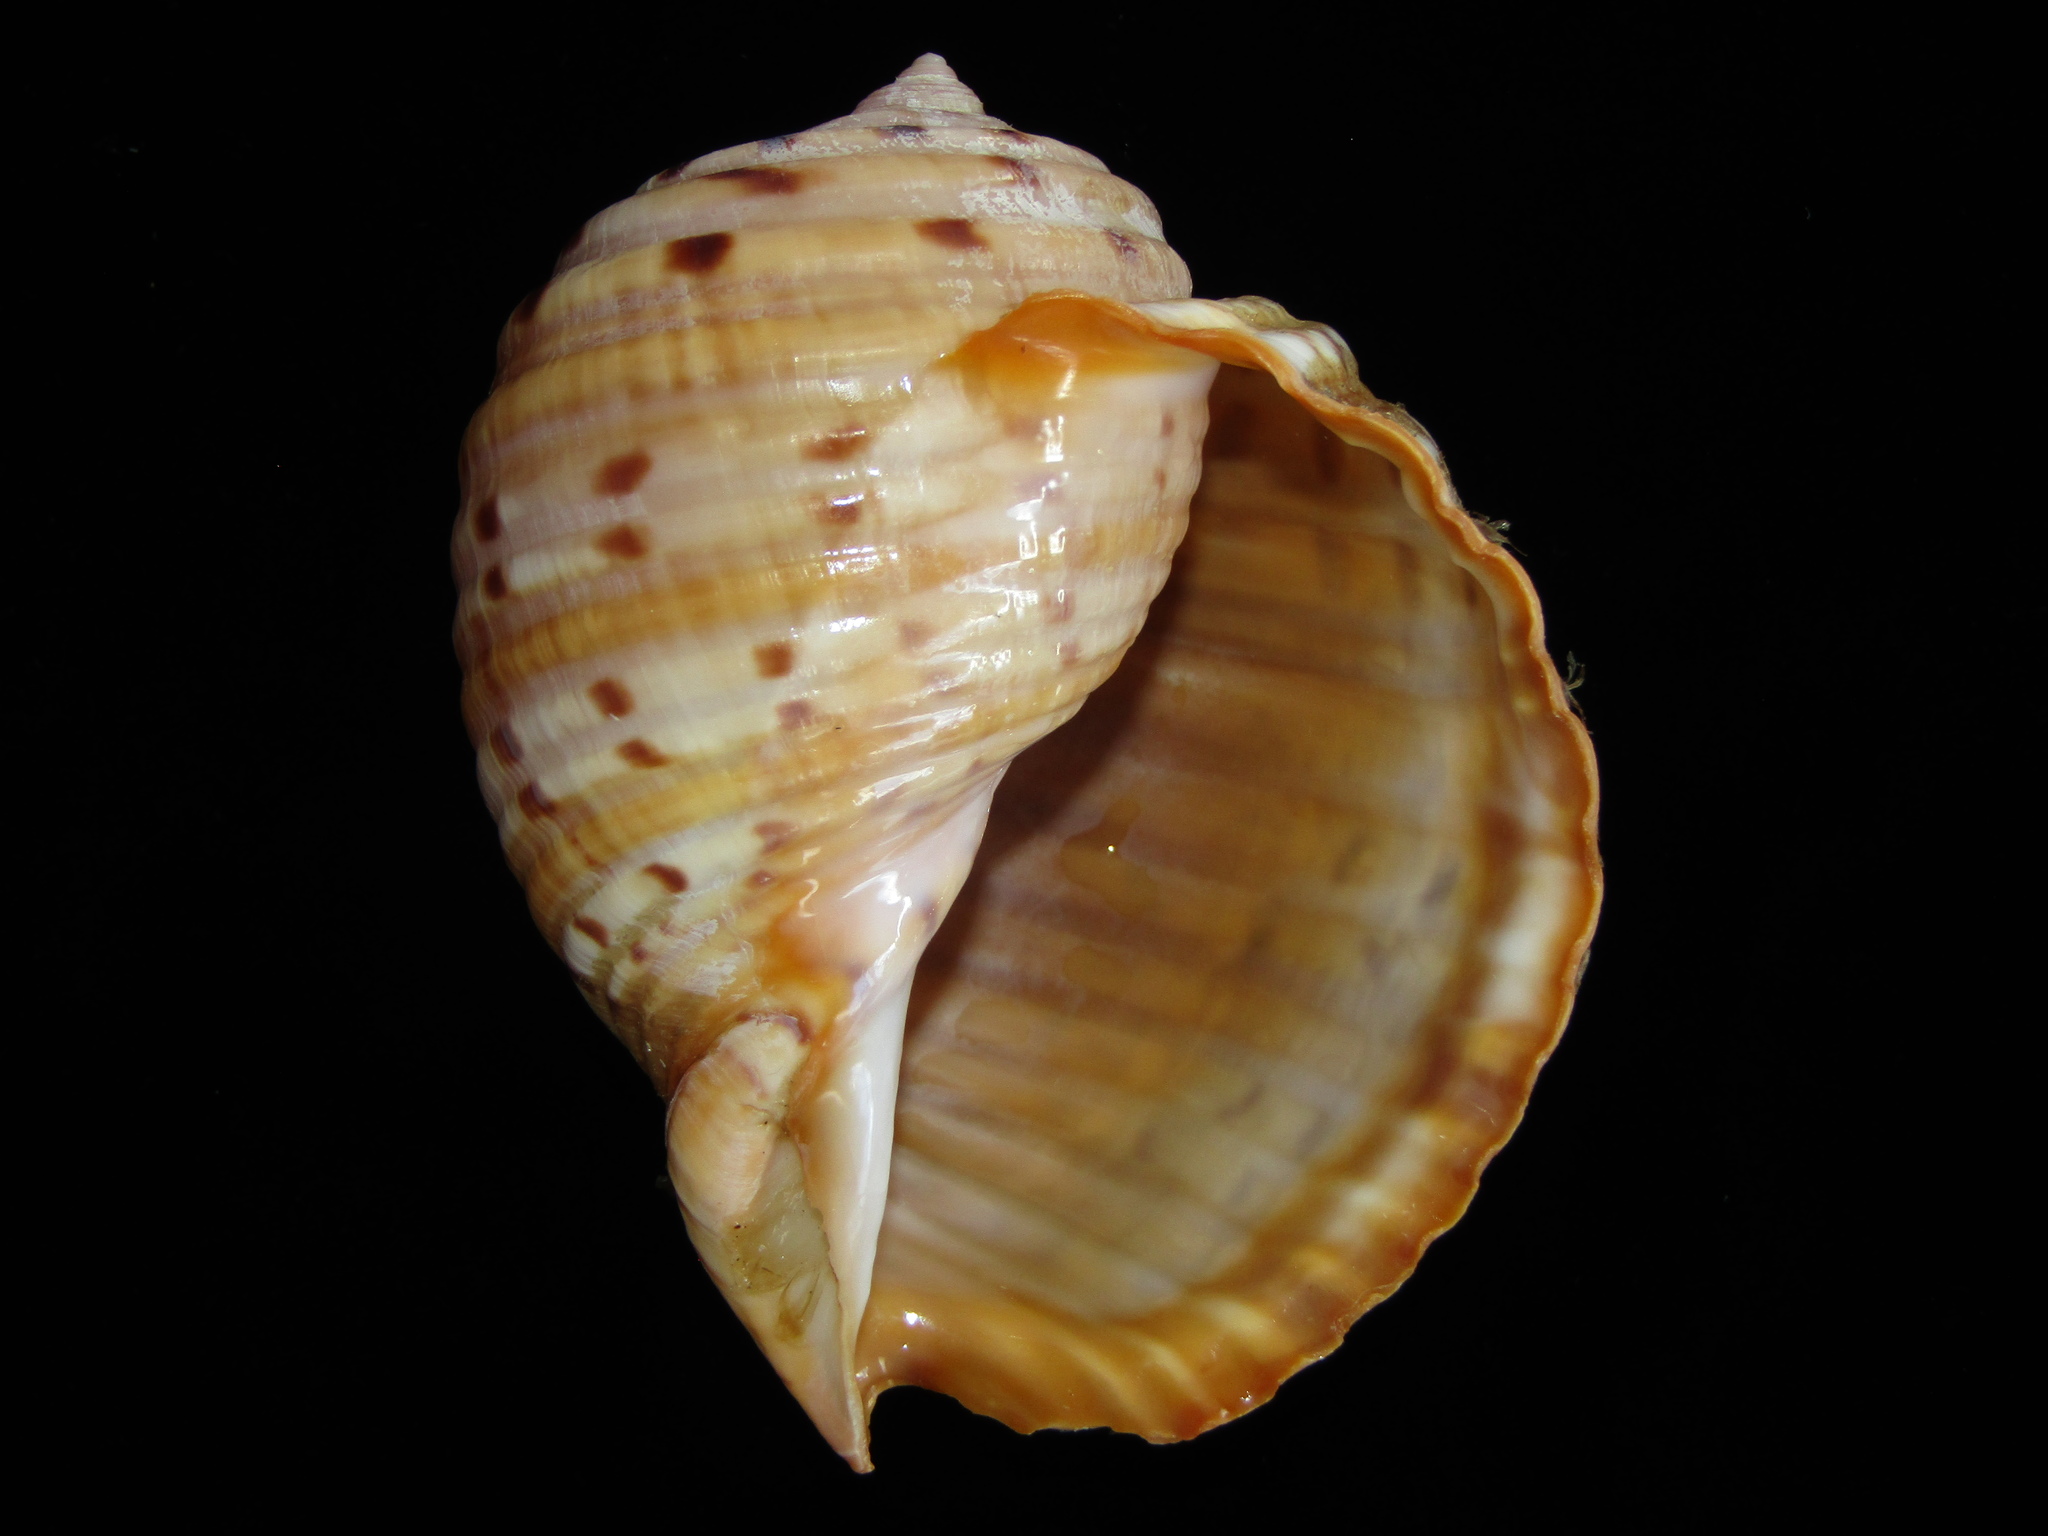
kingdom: Animalia
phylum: Mollusca
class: Gastropoda
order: Littorinimorpha
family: Tonnidae
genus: Tonna
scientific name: Tonna tankervillii
